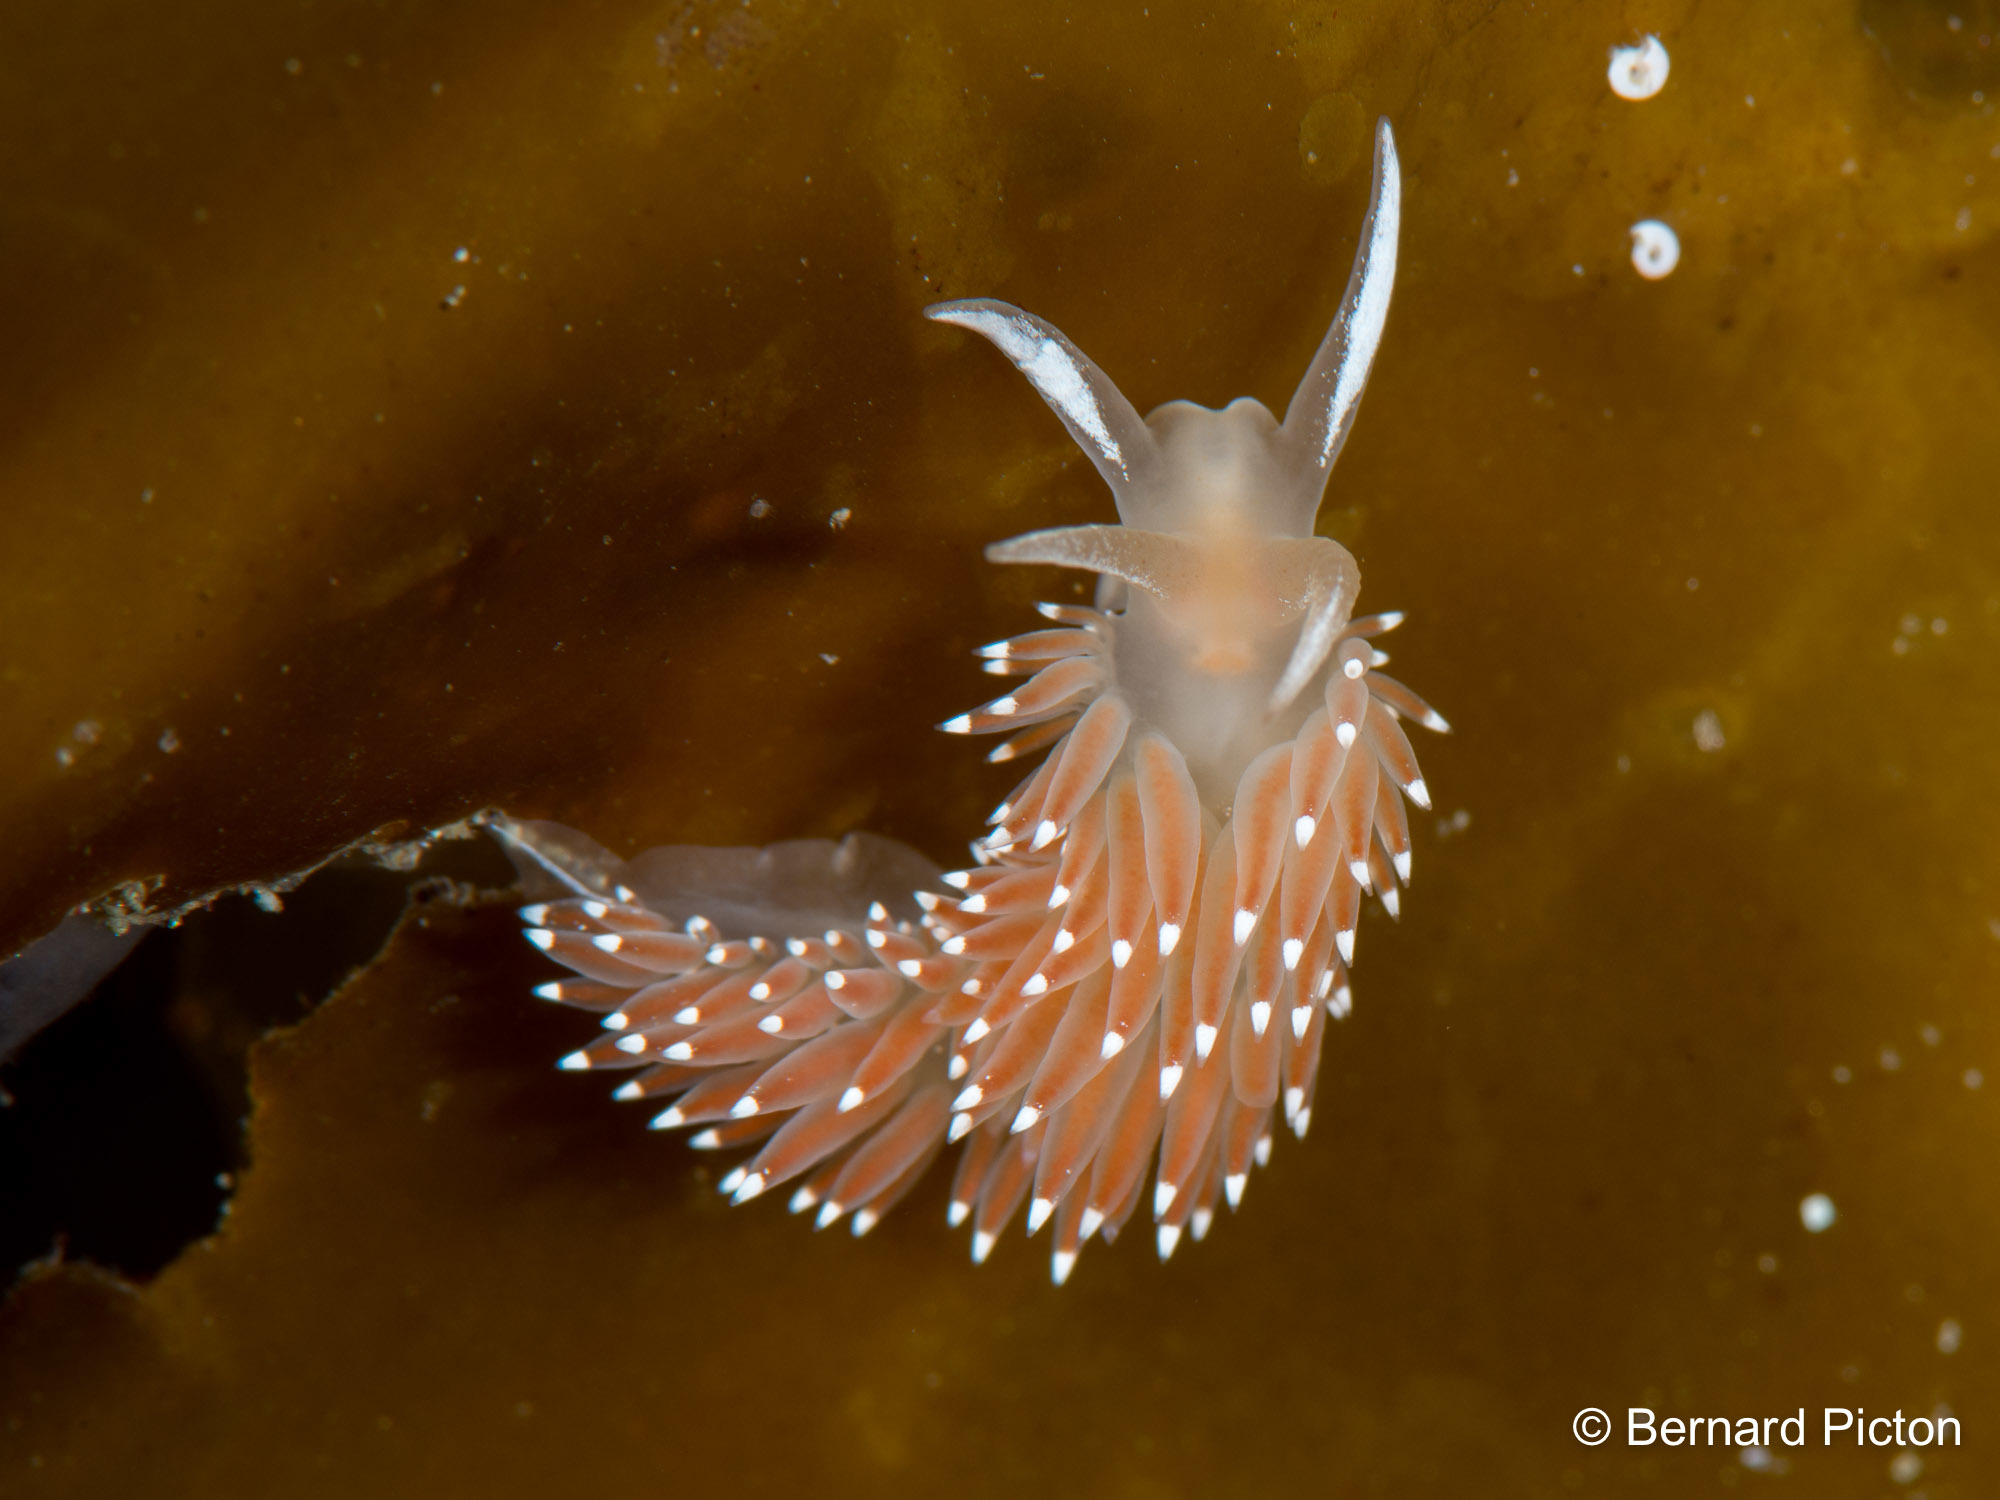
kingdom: Animalia
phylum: Mollusca
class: Gastropoda
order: Nudibranchia
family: Coryphellidae
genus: Coryphella
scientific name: Coryphella verrucosa
